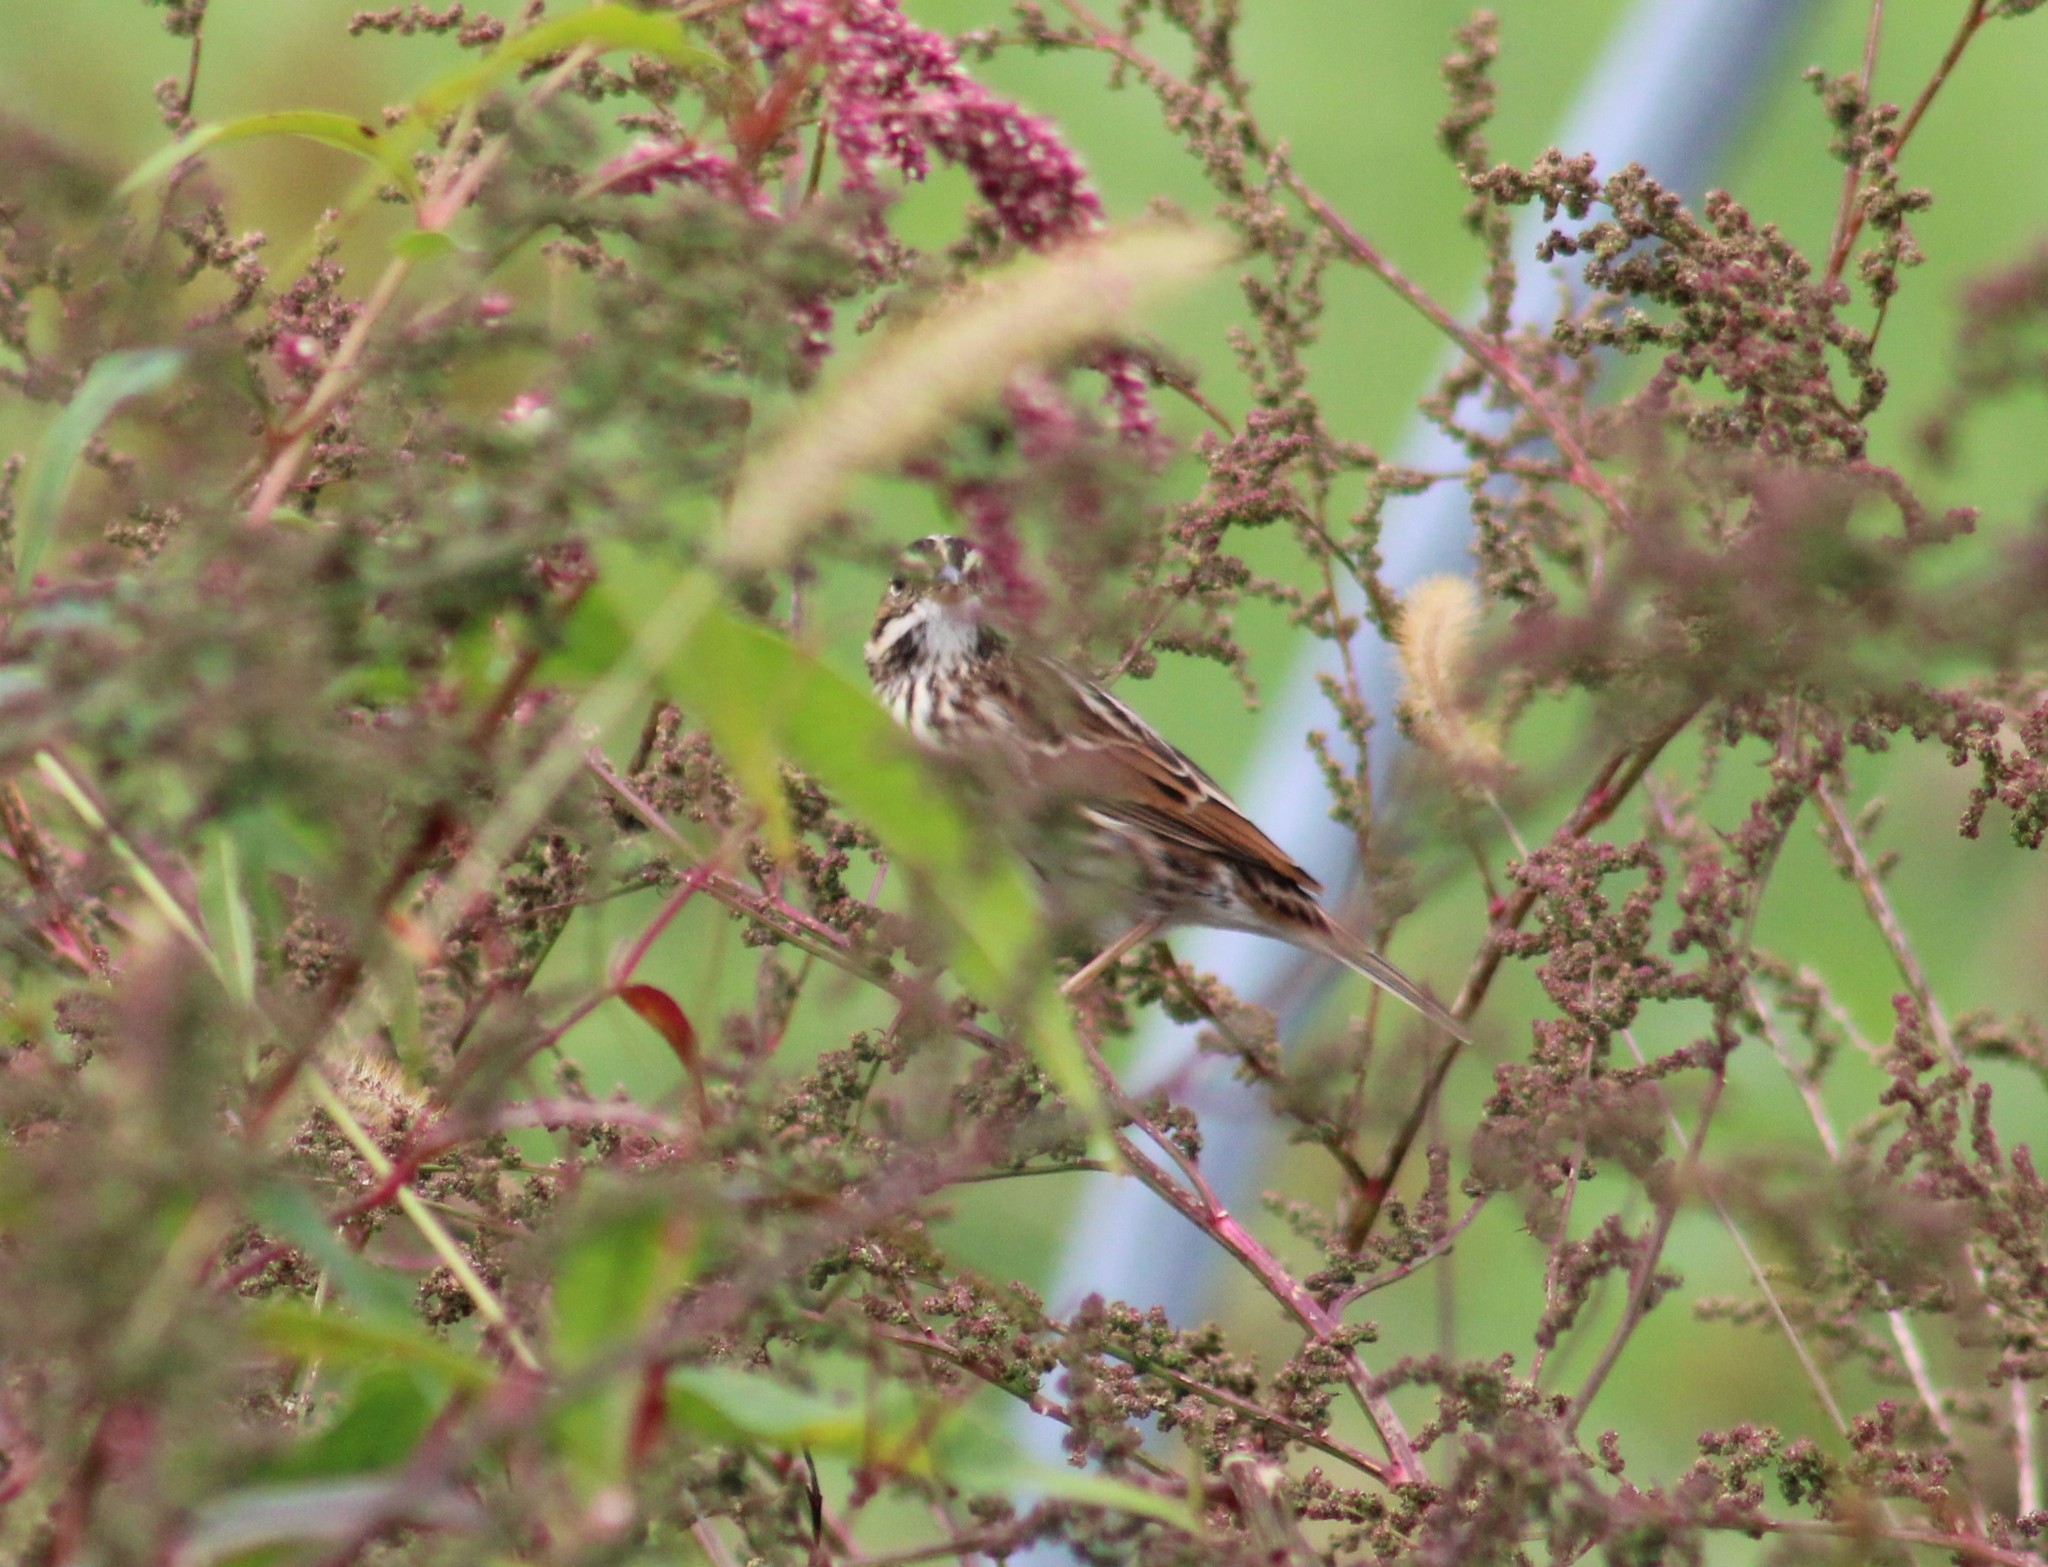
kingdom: Animalia
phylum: Chordata
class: Aves
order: Passeriformes
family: Passerellidae
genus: Passerculus
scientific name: Passerculus sandwichensis
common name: Savannah sparrow
